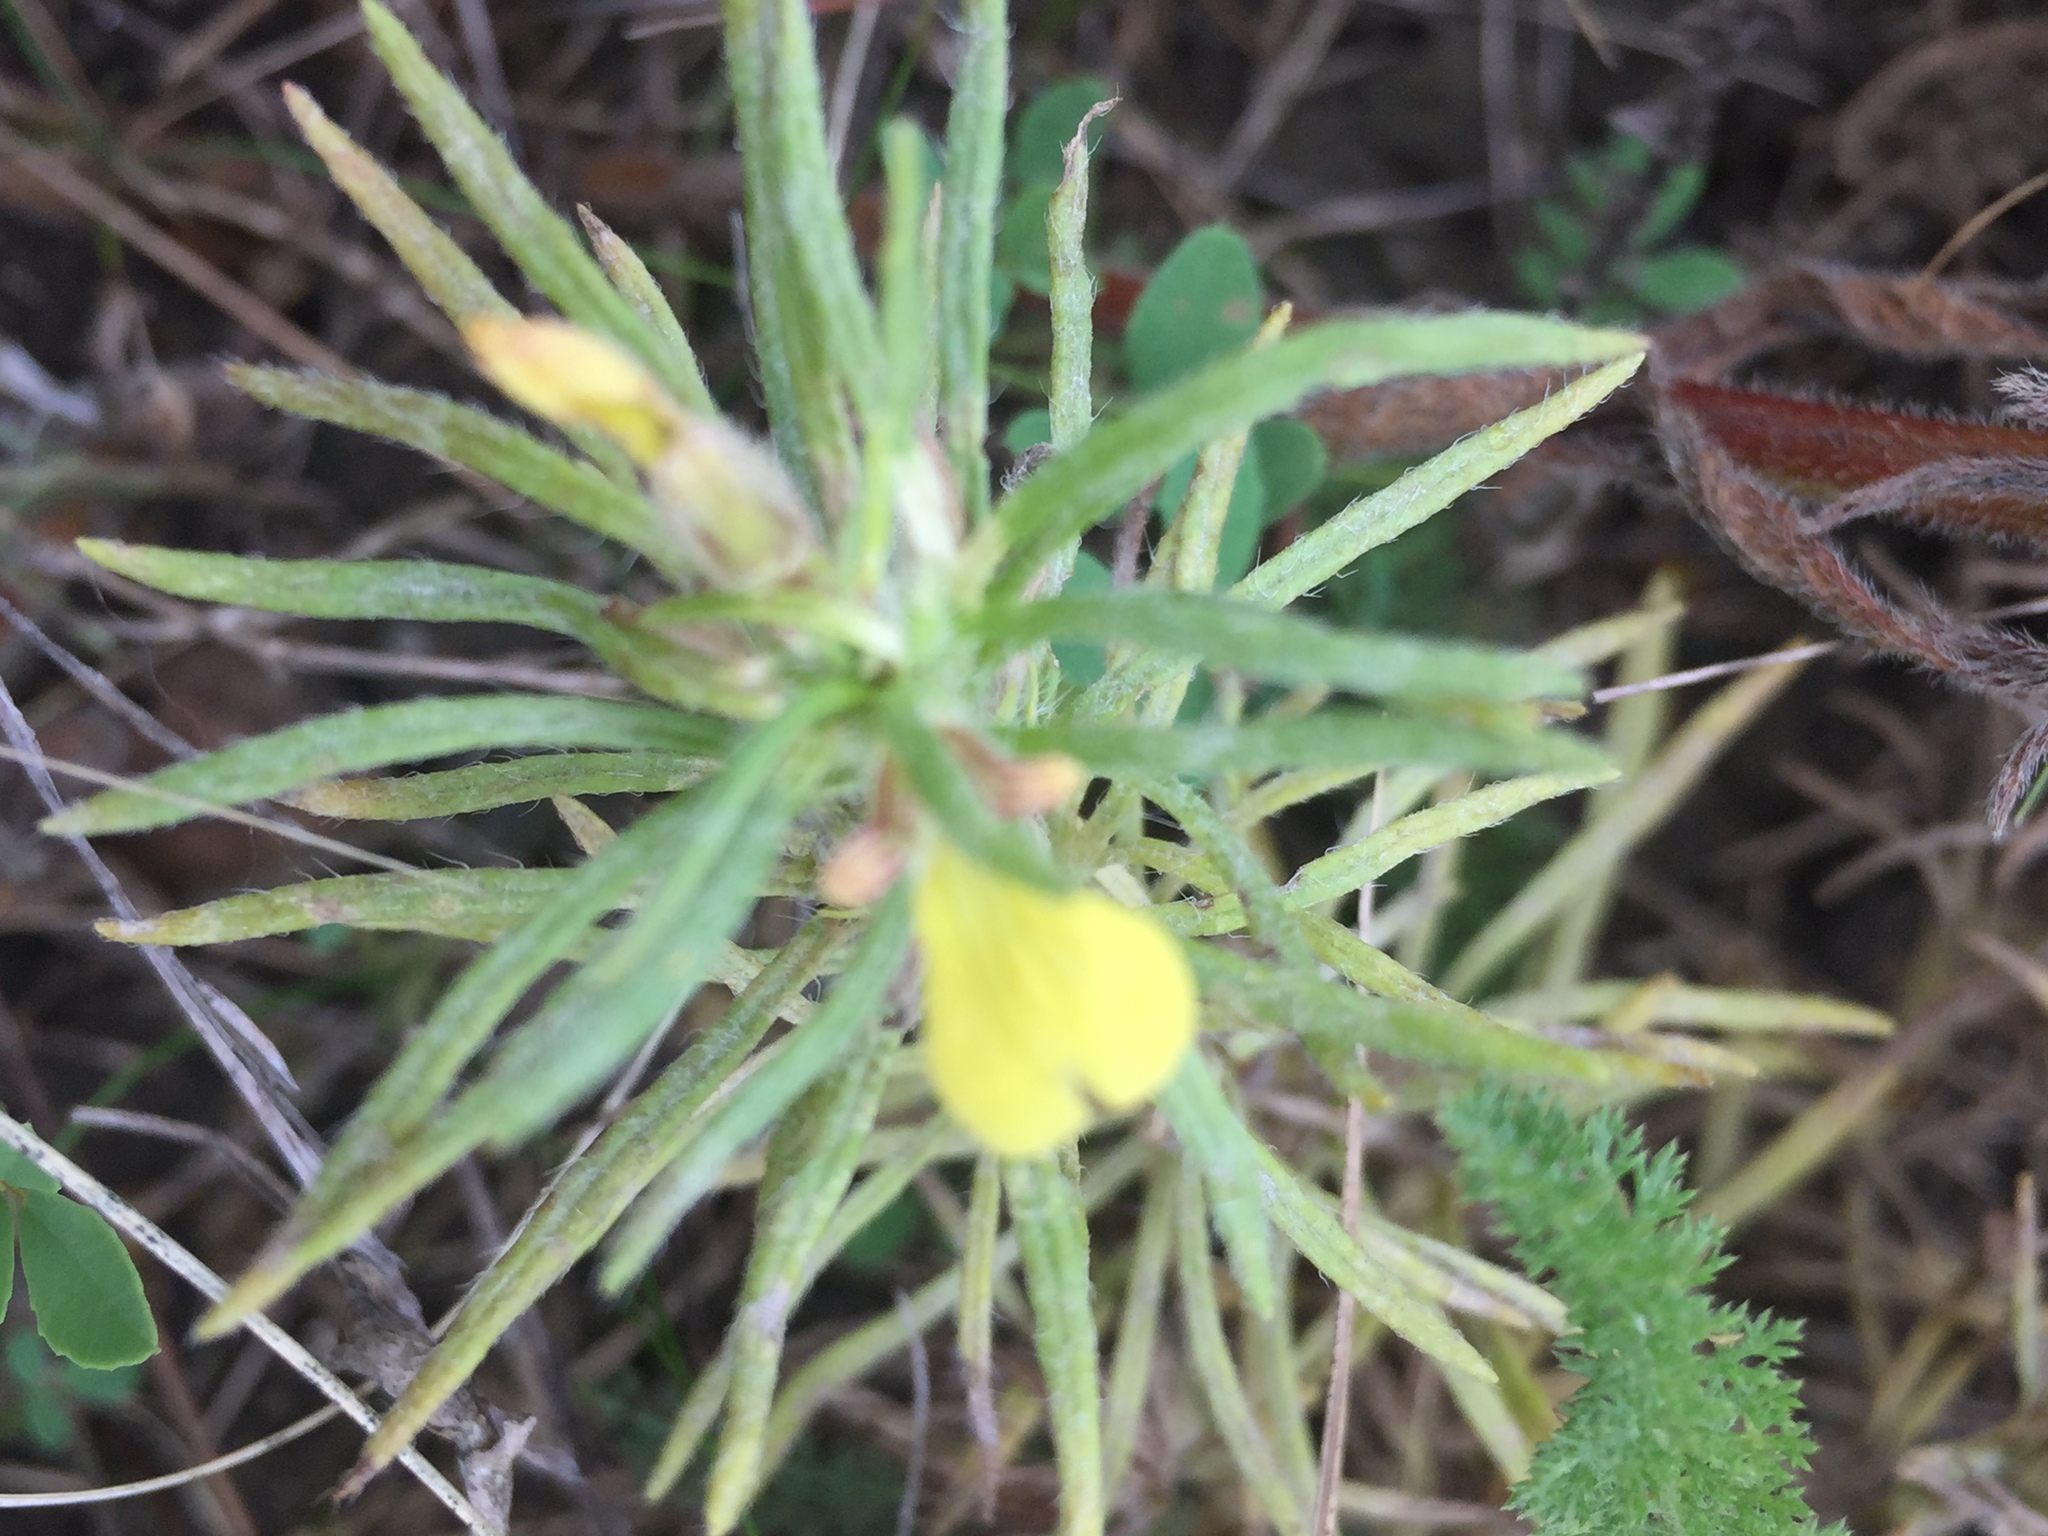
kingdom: Plantae
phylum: Tracheophyta
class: Magnoliopsida
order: Lamiales
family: Lamiaceae
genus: Ajuga
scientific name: Ajuga chamaepitys
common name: Ground-pine
